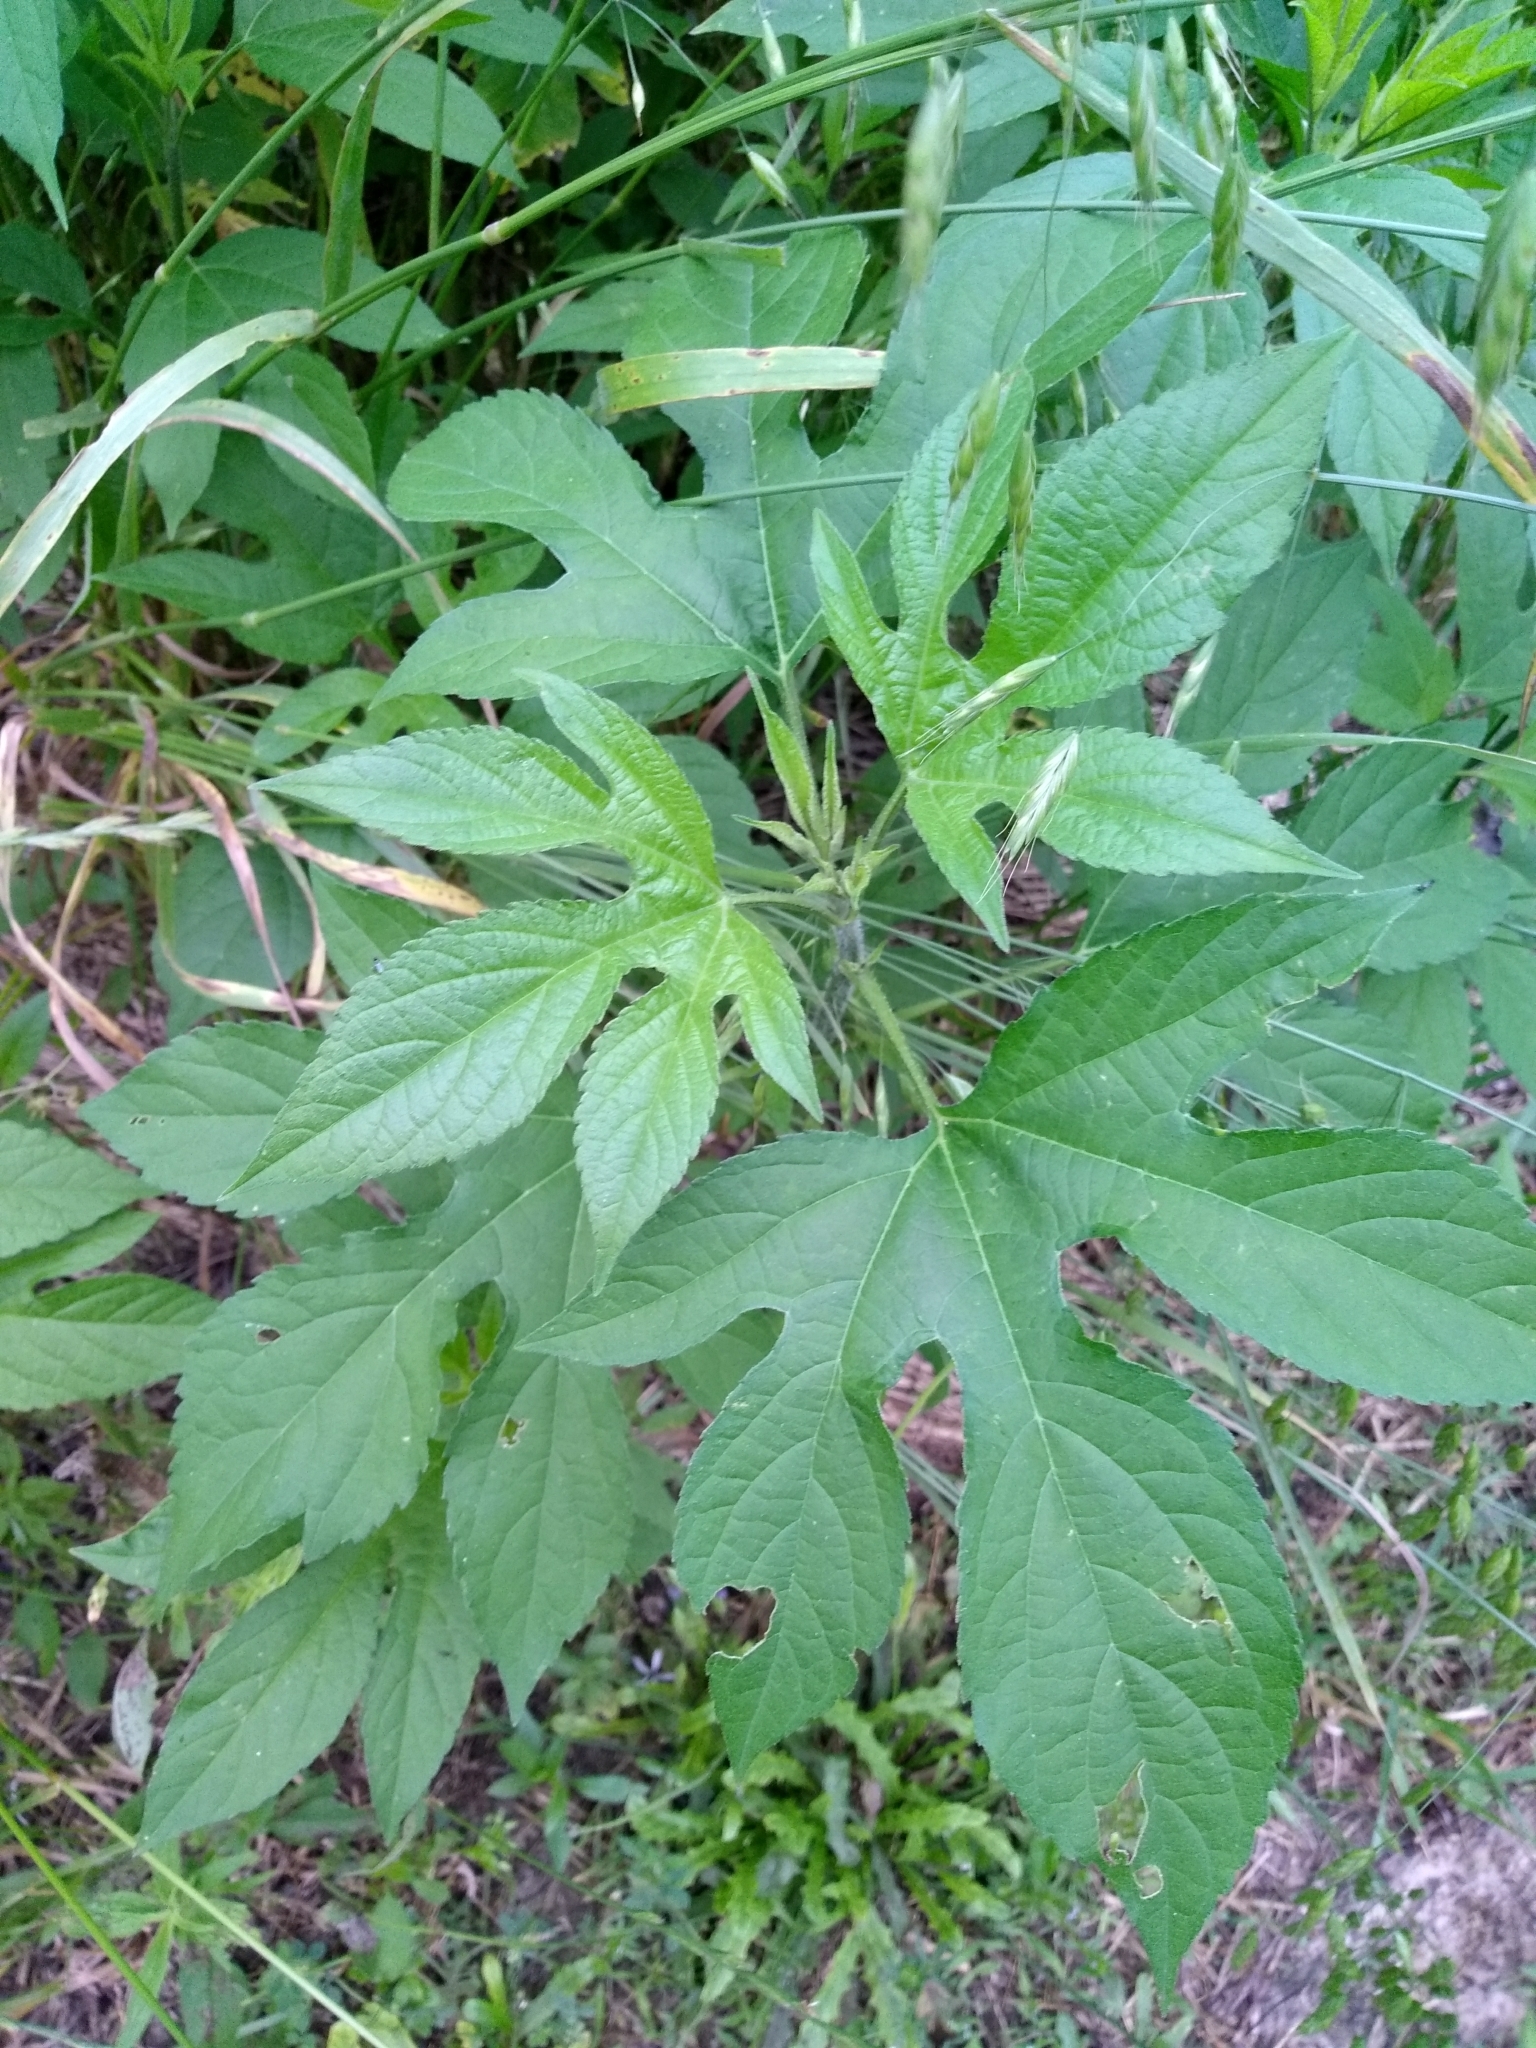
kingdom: Plantae
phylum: Tracheophyta
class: Magnoliopsida
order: Asterales
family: Asteraceae
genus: Ambrosia
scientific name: Ambrosia trifida
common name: Giant ragweed
